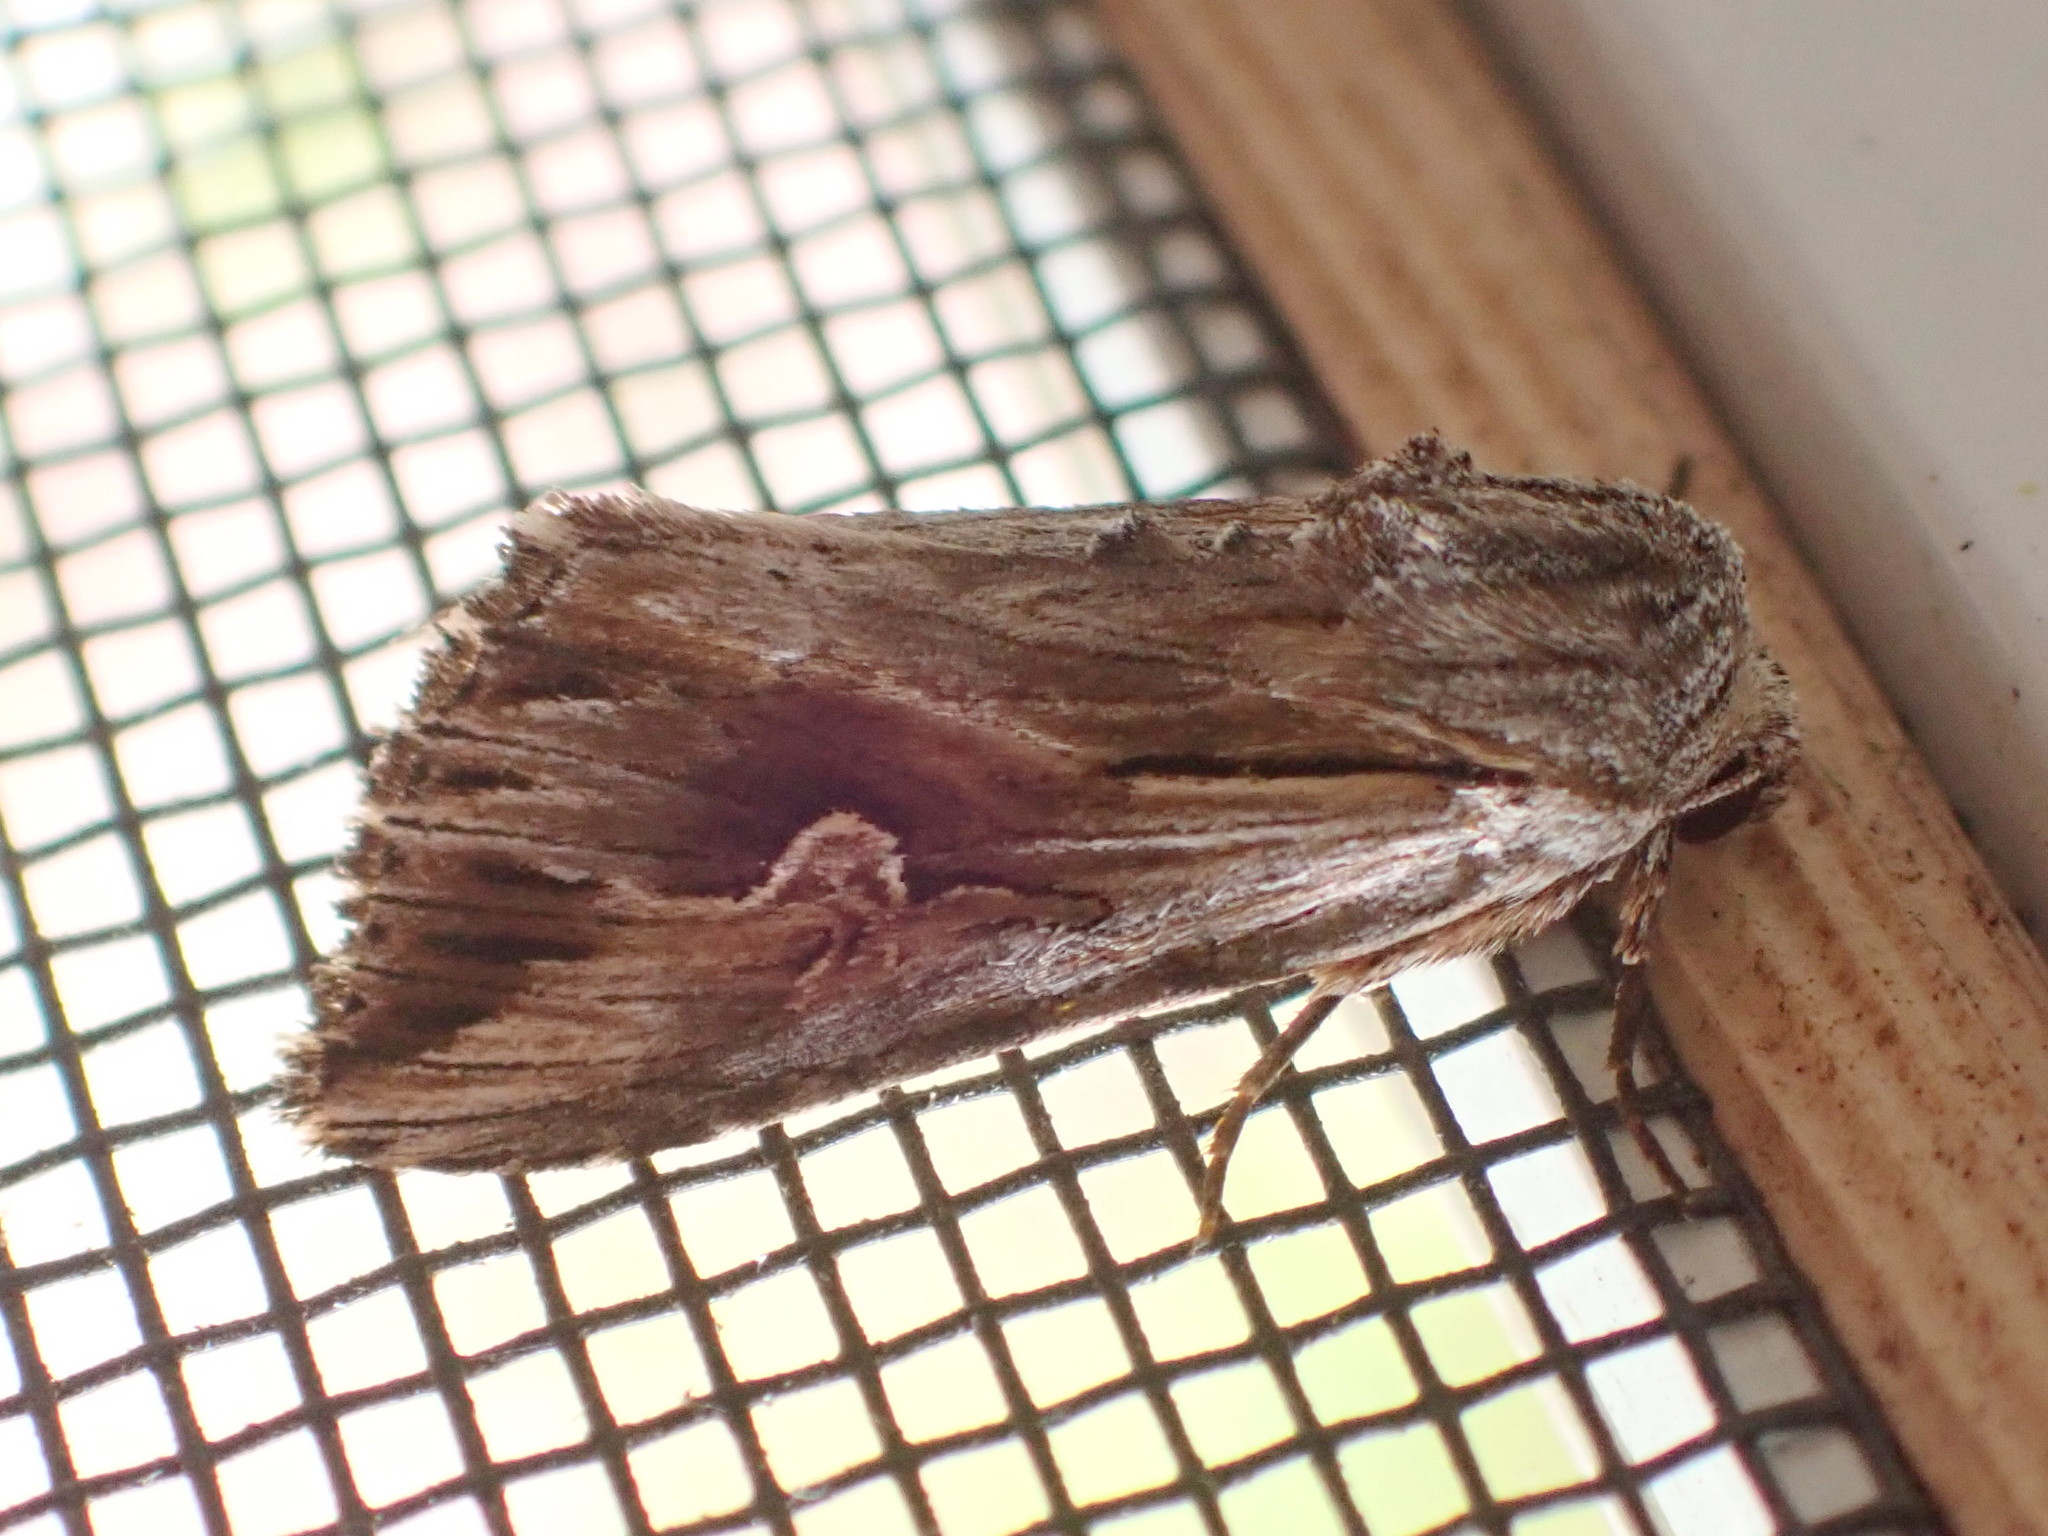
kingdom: Animalia
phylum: Arthropoda
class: Insecta
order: Lepidoptera
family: Noctuidae
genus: Nedra
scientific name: Nedra ramosula
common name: Gray half-spot
